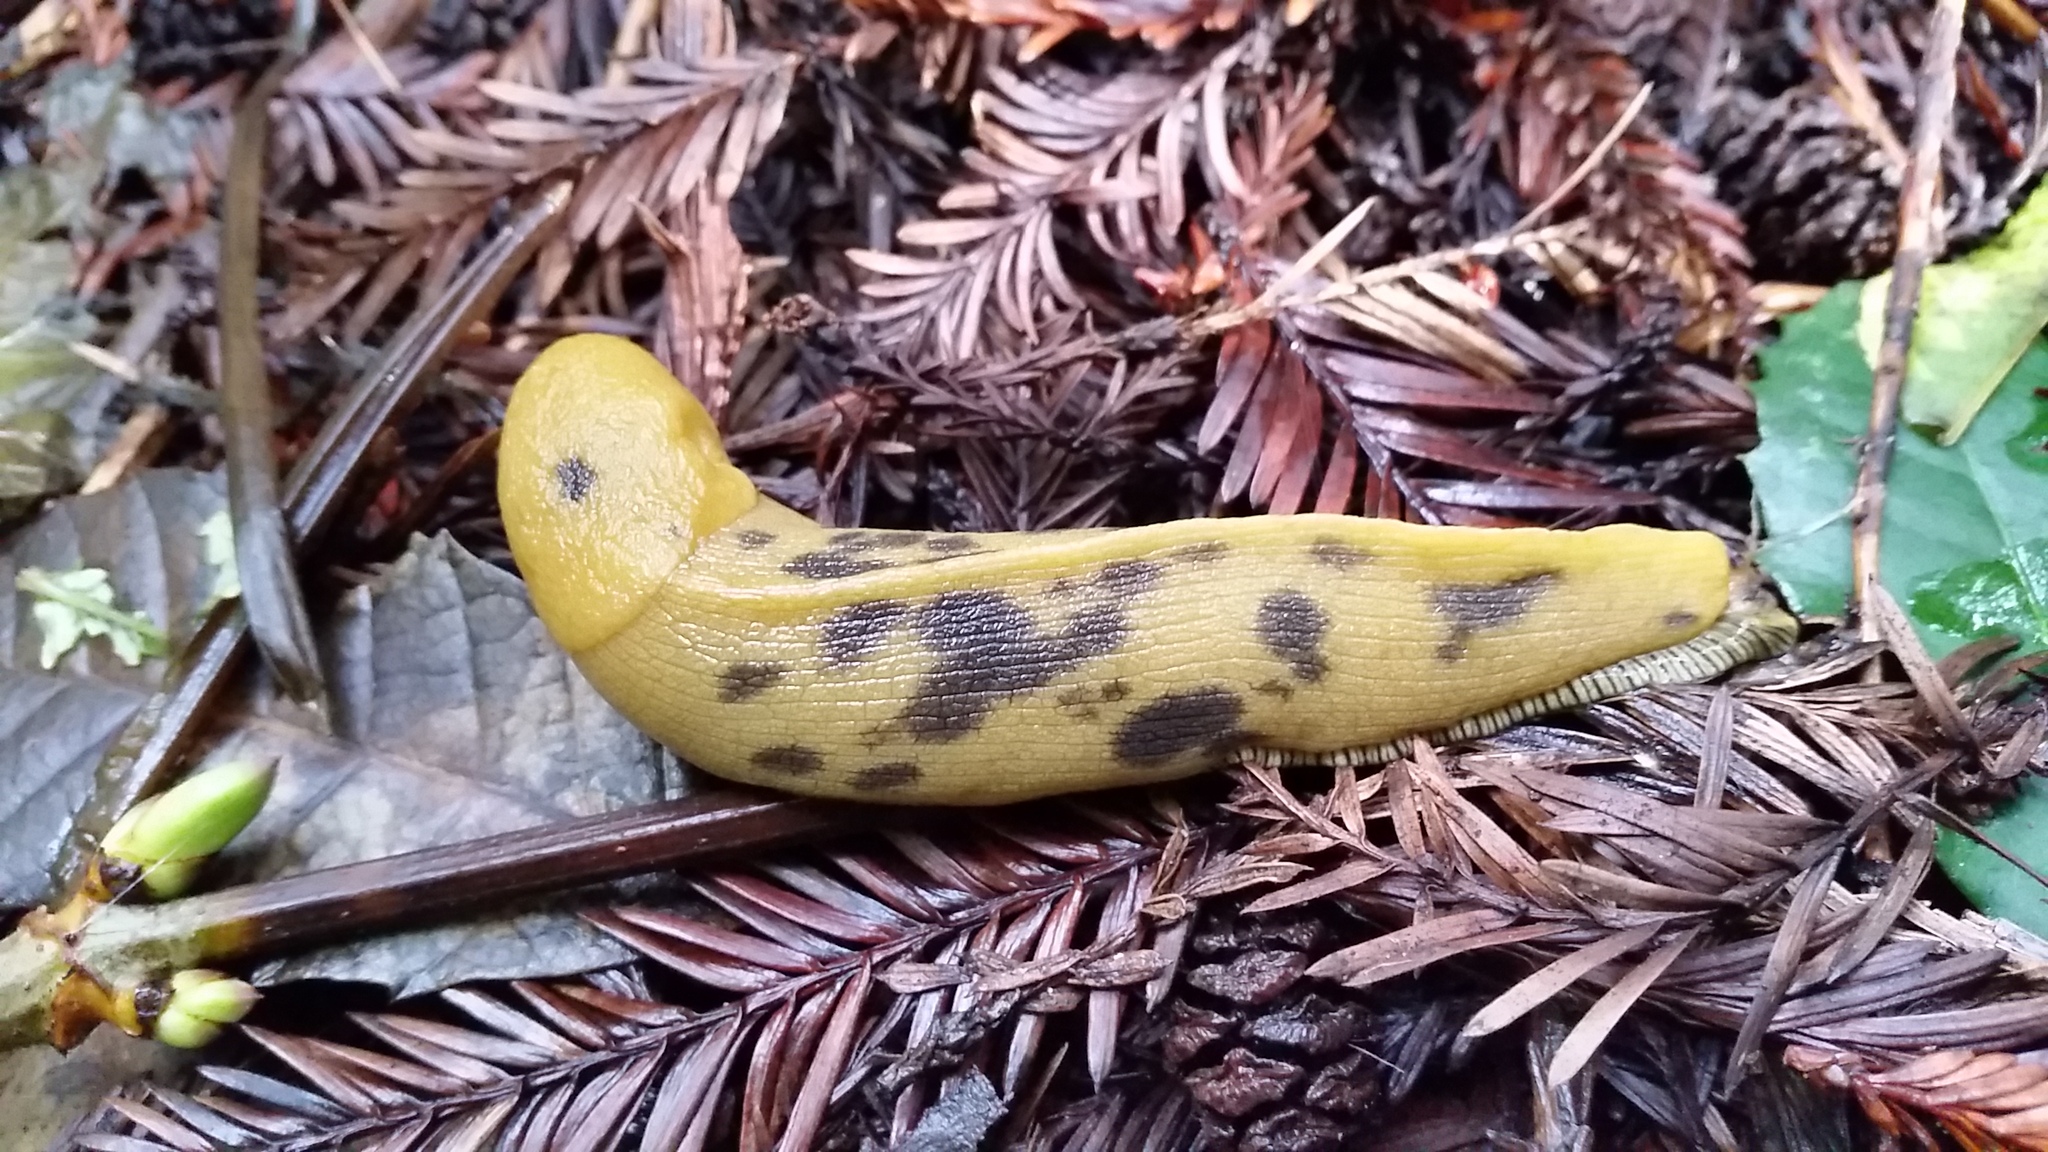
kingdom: Animalia
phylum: Mollusca
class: Gastropoda
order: Stylommatophora
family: Ariolimacidae
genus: Ariolimax
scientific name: Ariolimax buttoni
